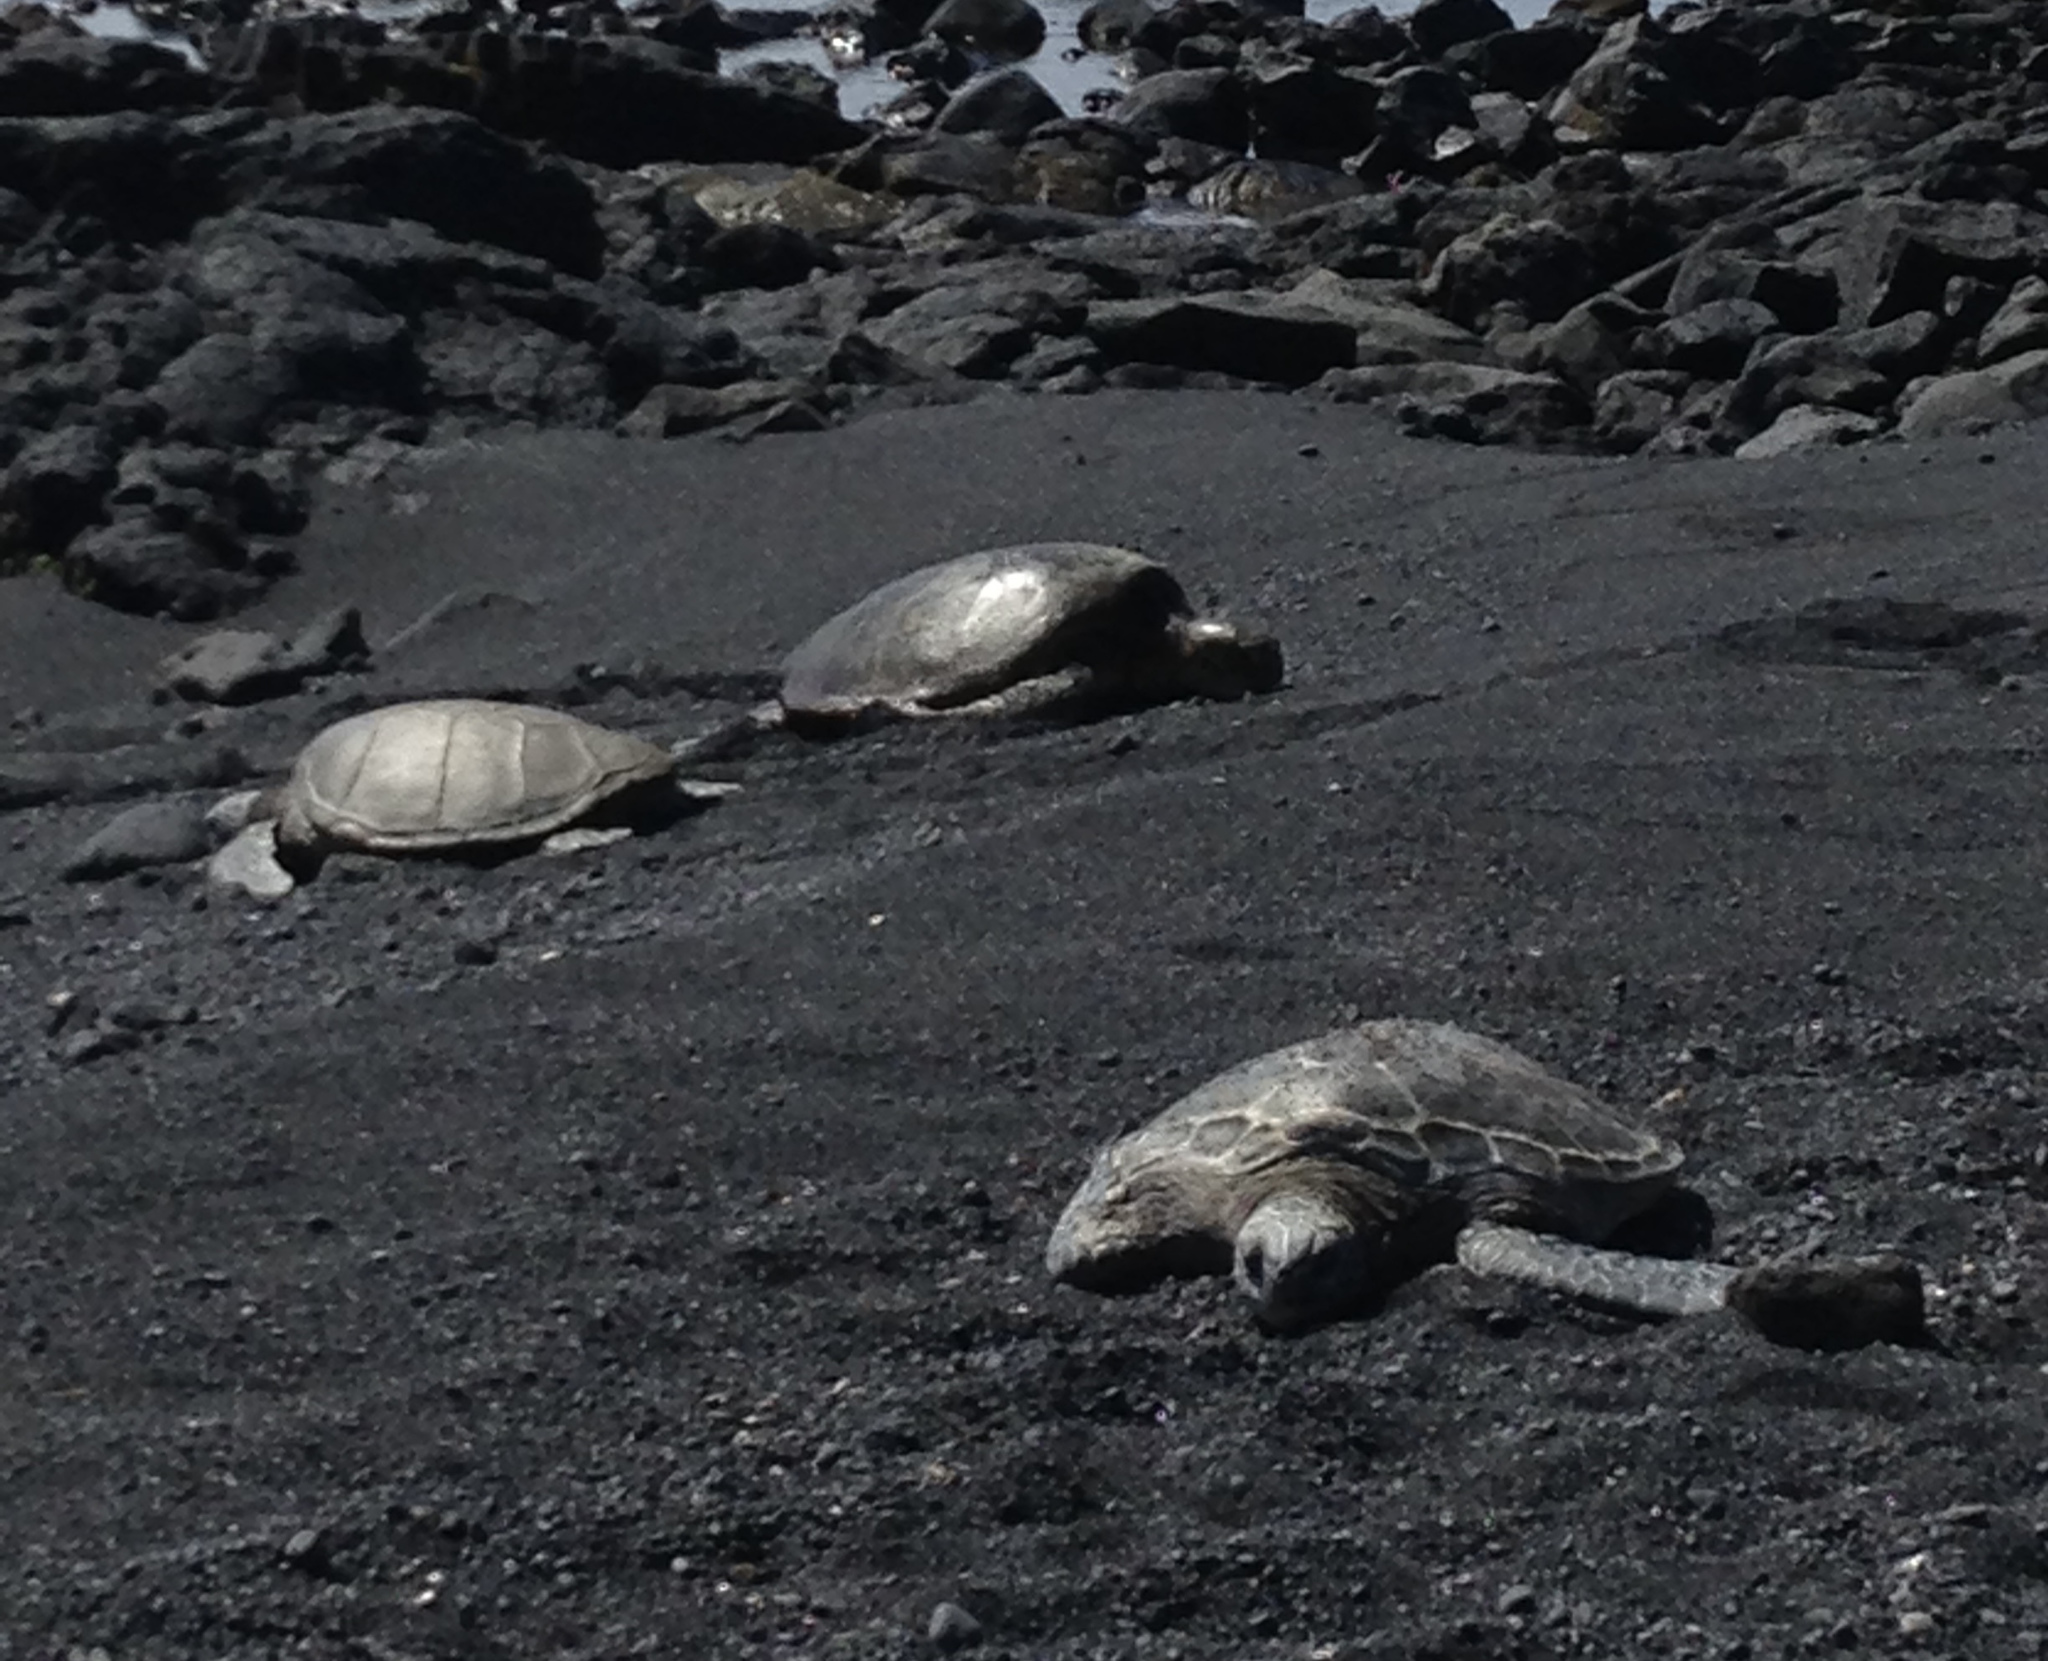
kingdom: Animalia
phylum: Chordata
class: Testudines
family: Cheloniidae
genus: Chelonia
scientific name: Chelonia mydas
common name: Green turtle
